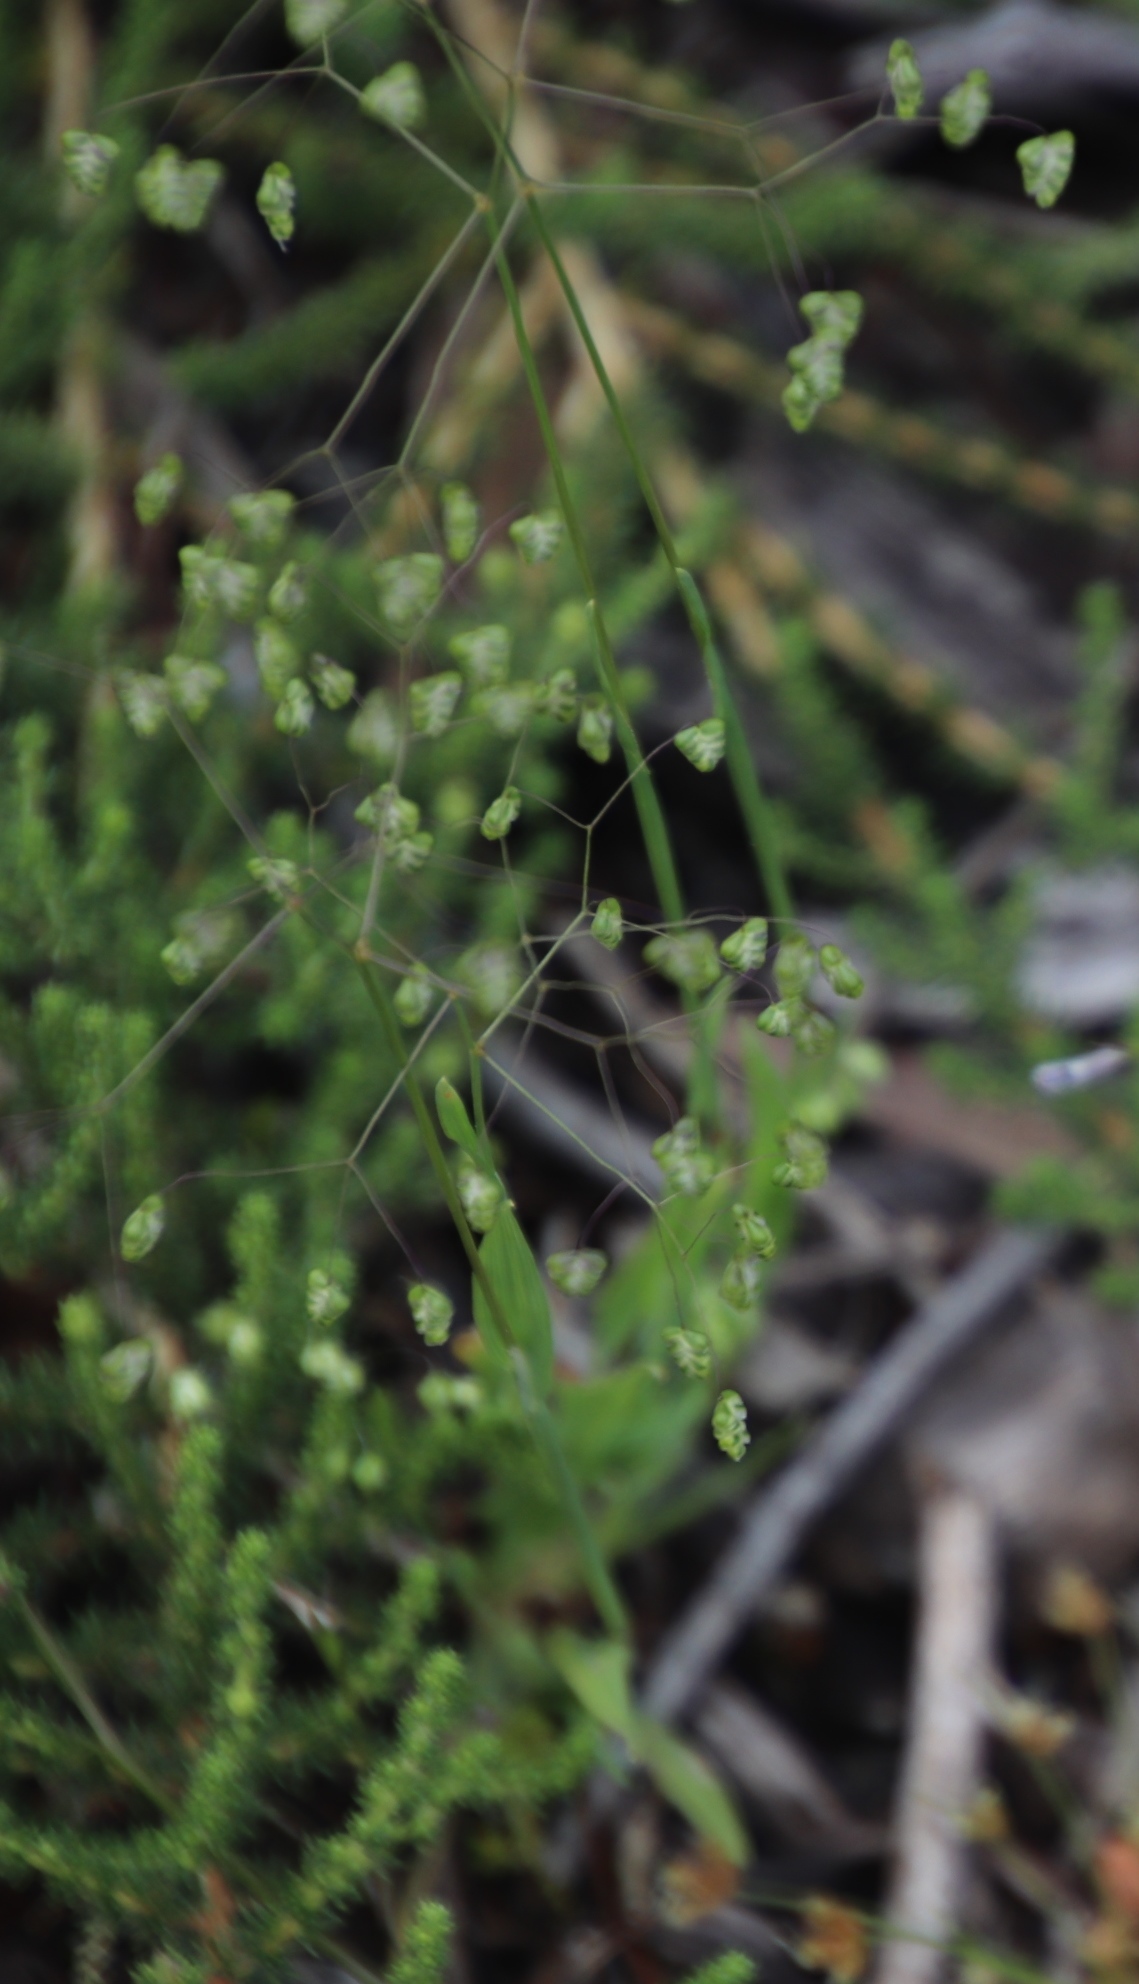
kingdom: Plantae
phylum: Tracheophyta
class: Liliopsida
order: Poales
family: Poaceae
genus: Briza
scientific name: Briza minor
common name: Lesser quaking-grass
